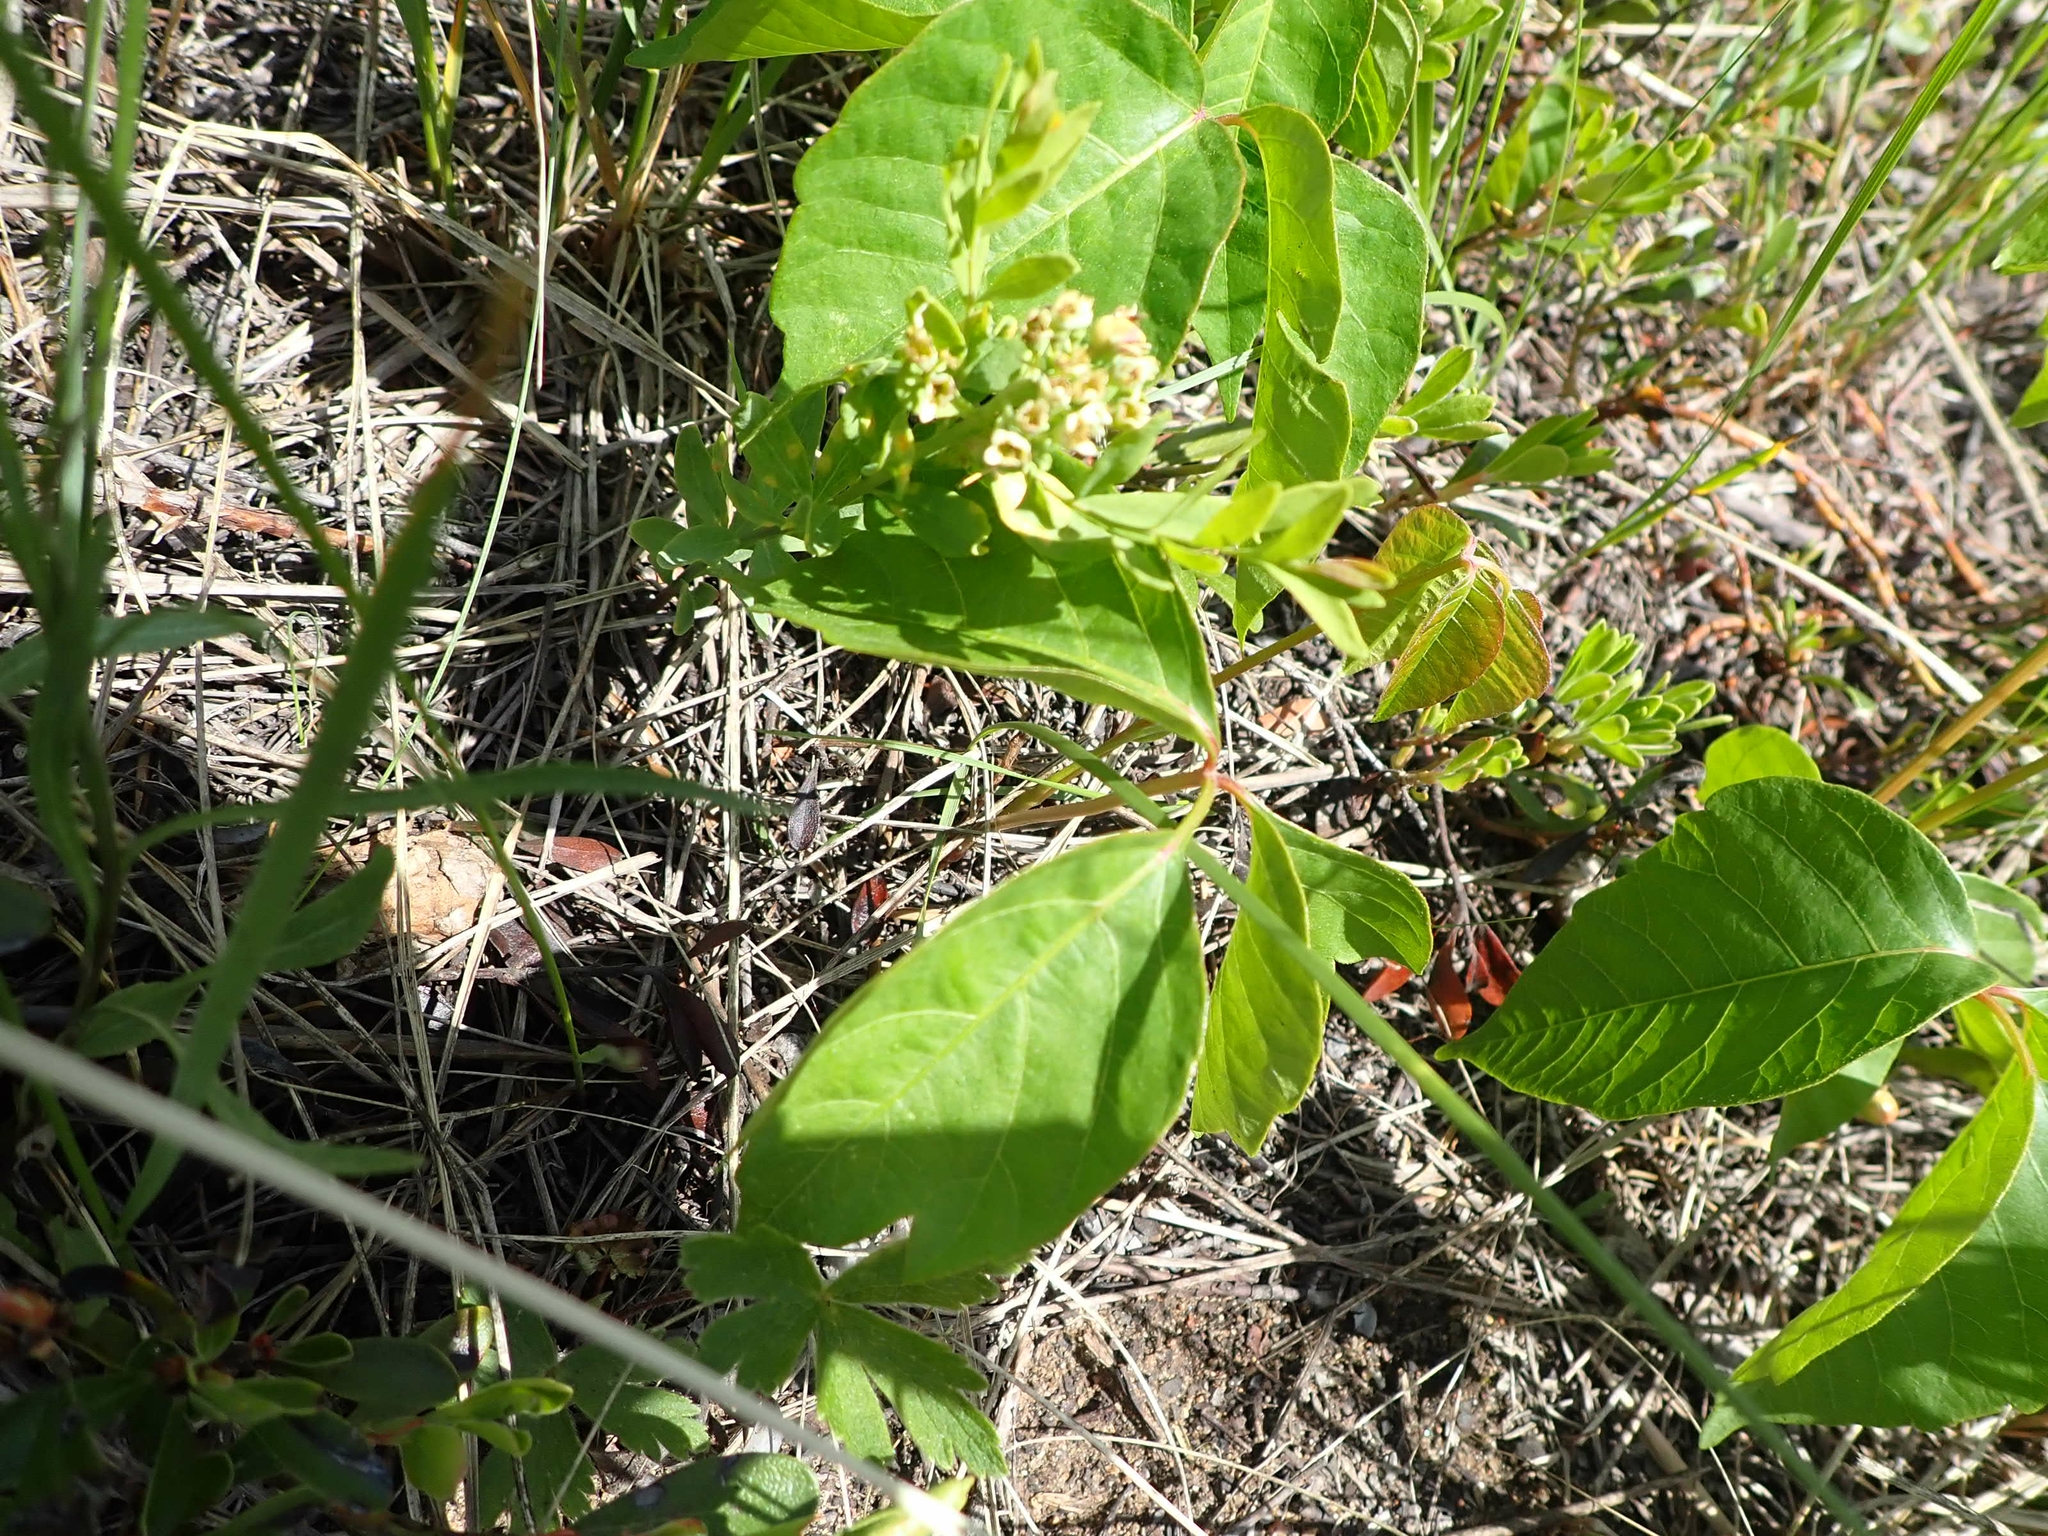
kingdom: Plantae
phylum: Tracheophyta
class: Magnoliopsida
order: Sapindales
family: Anacardiaceae
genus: Toxicodendron
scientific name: Toxicodendron rydbergii
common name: Rydberg's poison-ivy
